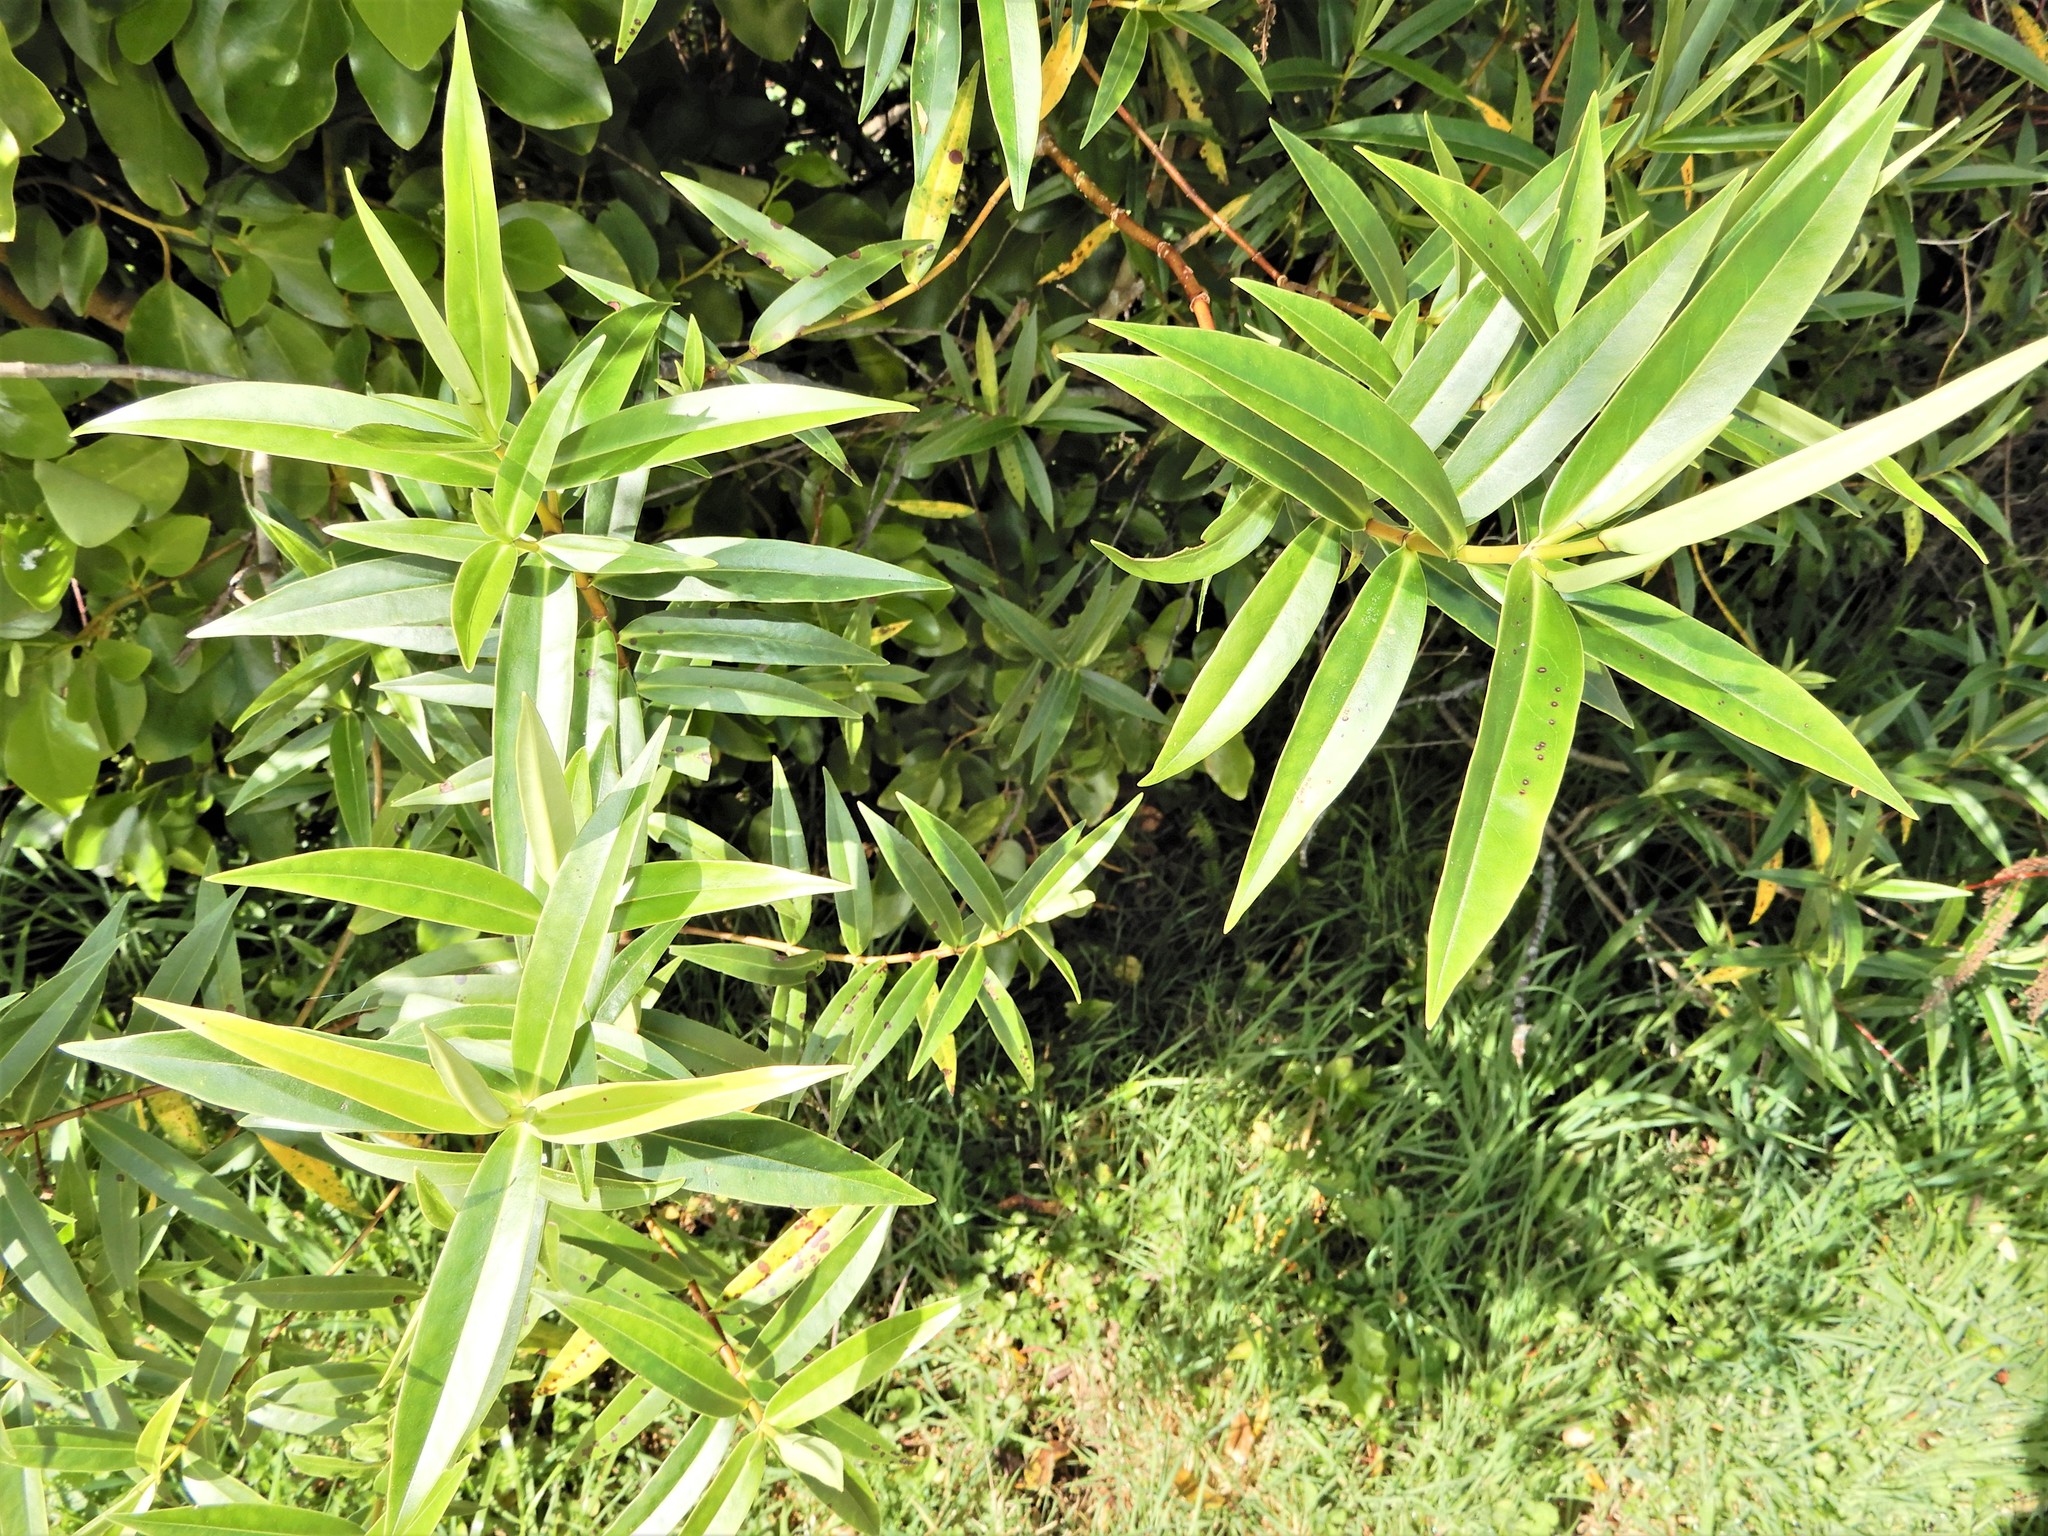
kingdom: Plantae
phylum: Tracheophyta
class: Magnoliopsida
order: Lamiales
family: Plantaginaceae
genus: Veronica
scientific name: Veronica stricta
